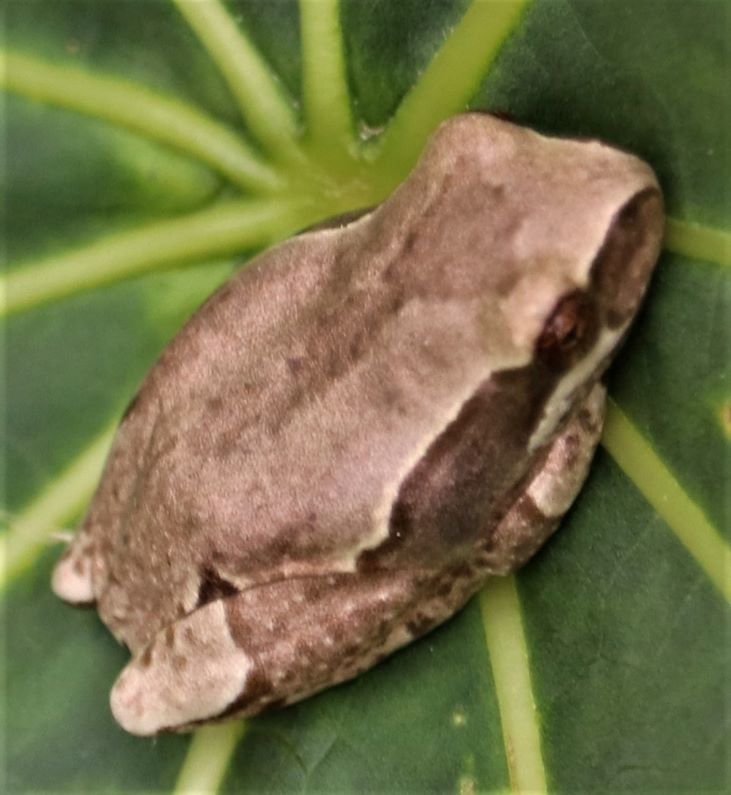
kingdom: Animalia
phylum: Chordata
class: Amphibia
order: Anura
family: Hyperoliidae
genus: Hyperolius
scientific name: Hyperolius marmoratus
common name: Painted reed frog
